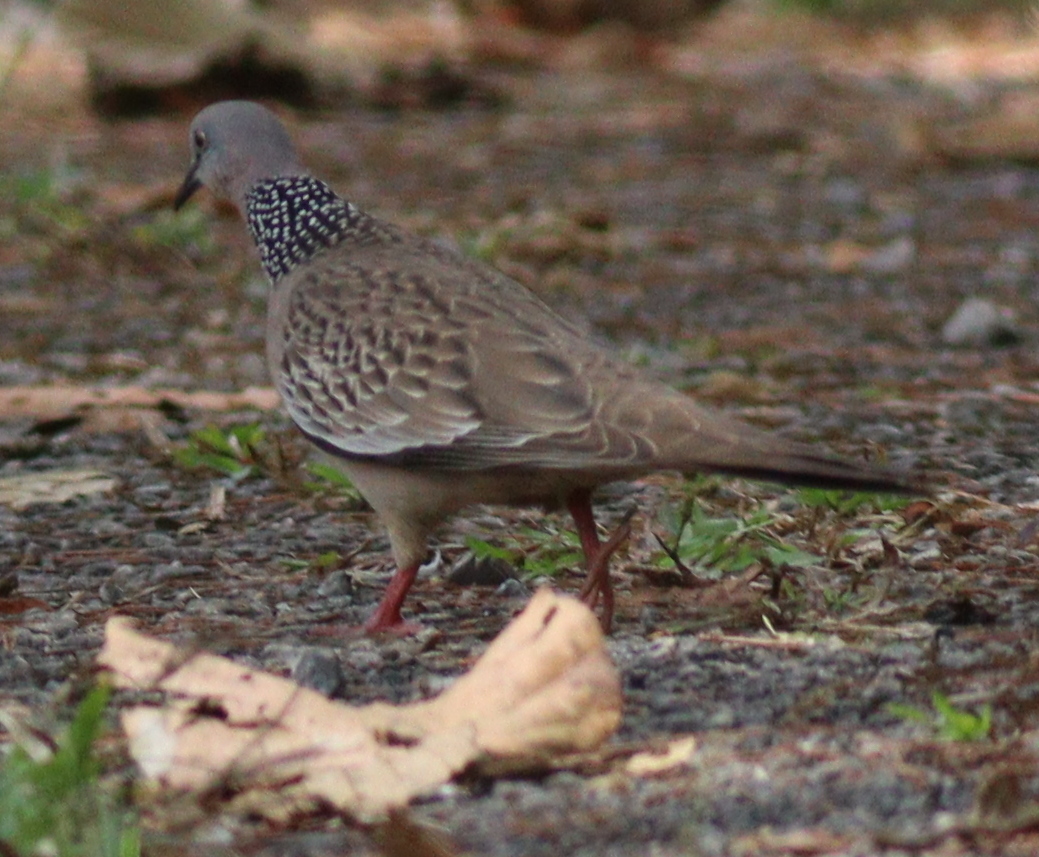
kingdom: Animalia
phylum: Chordata
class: Aves
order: Columbiformes
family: Columbidae
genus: Spilopelia
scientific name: Spilopelia chinensis
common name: Spotted dove
